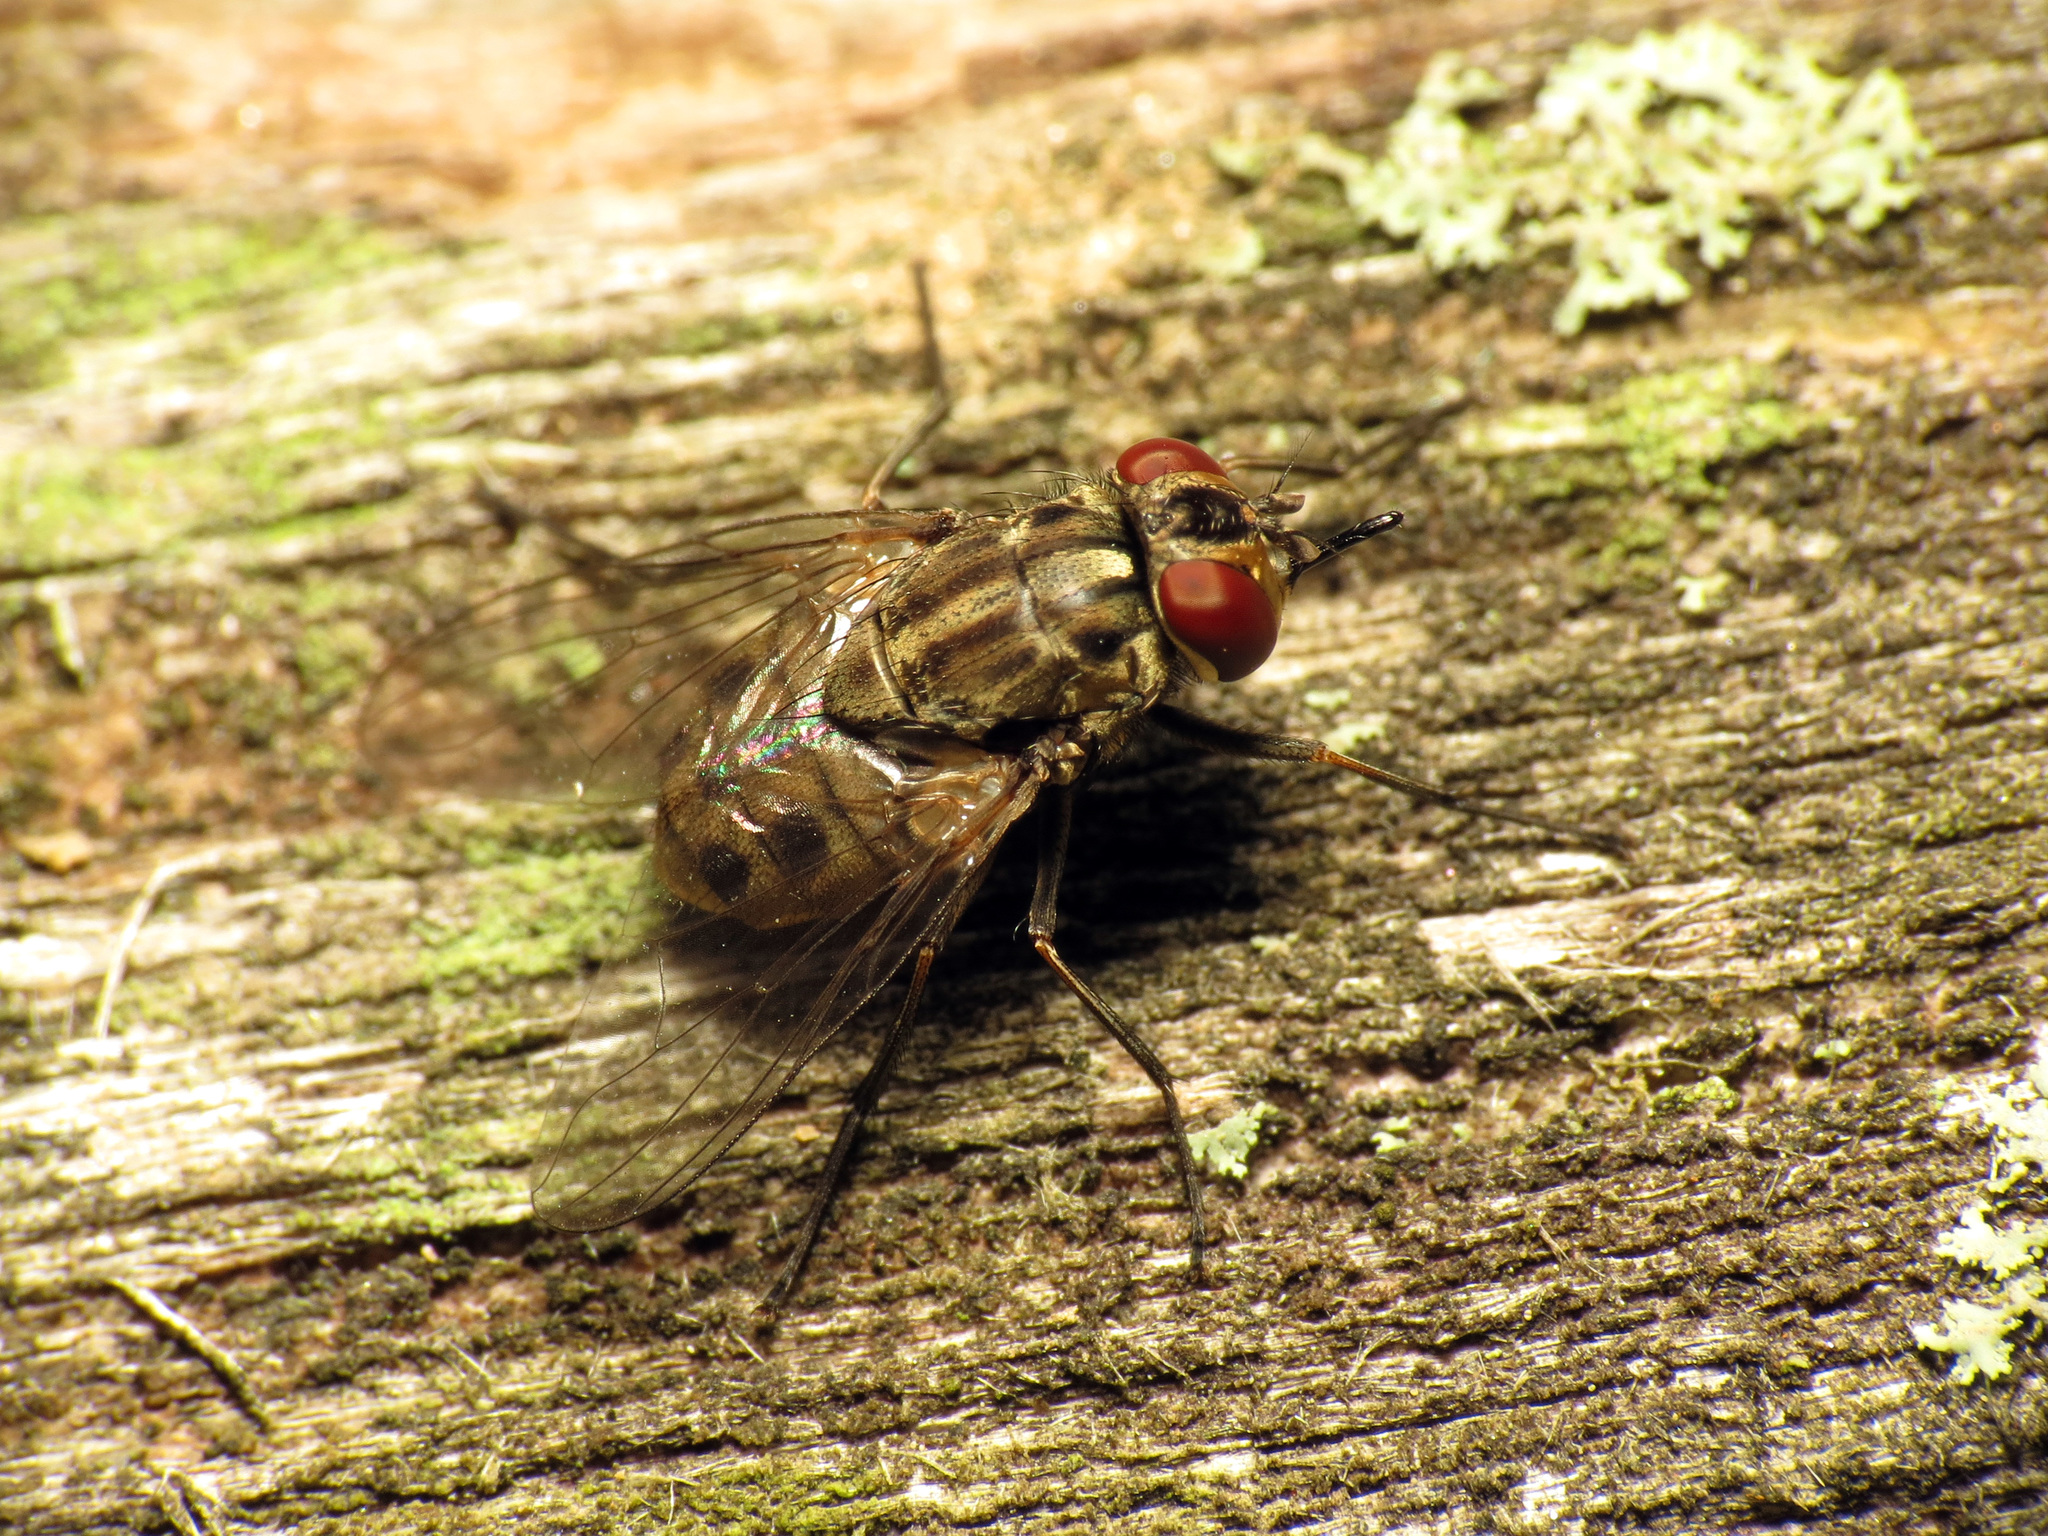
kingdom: Animalia
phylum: Arthropoda
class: Insecta
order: Diptera
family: Muscidae
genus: Stomoxys
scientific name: Stomoxys calcitrans
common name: Stable fly
